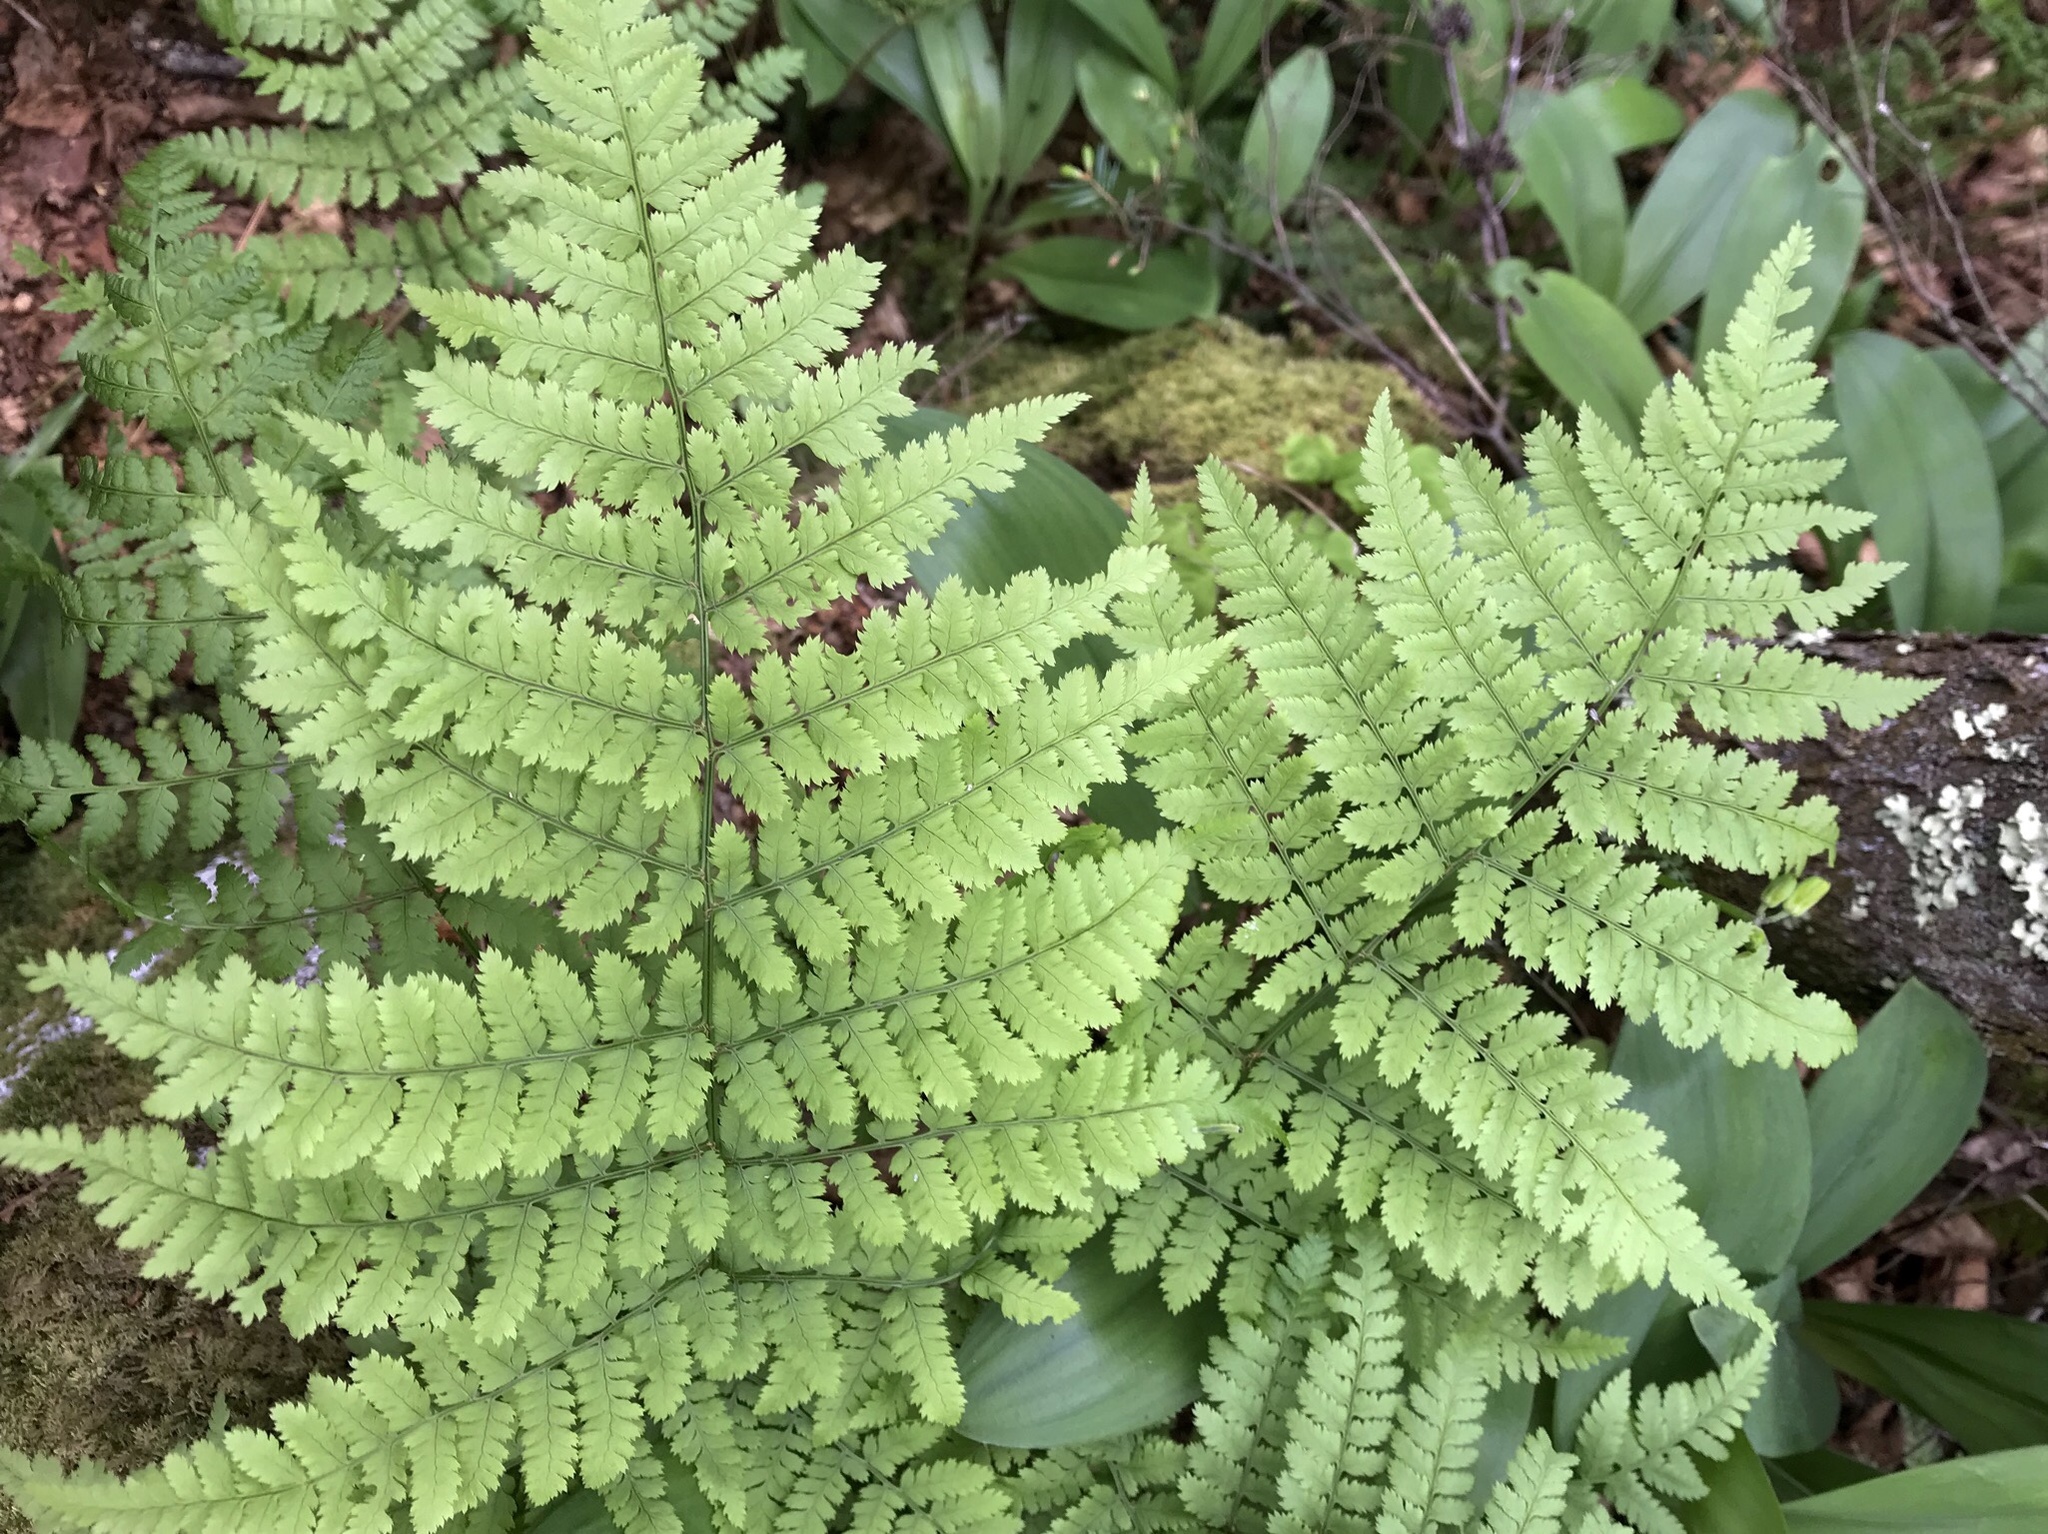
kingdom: Plantae
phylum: Tracheophyta
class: Polypodiopsida
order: Polypodiales
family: Dryopteridaceae
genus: Dryopteris
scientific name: Dryopteris campyloptera
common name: Mountain wood fern
